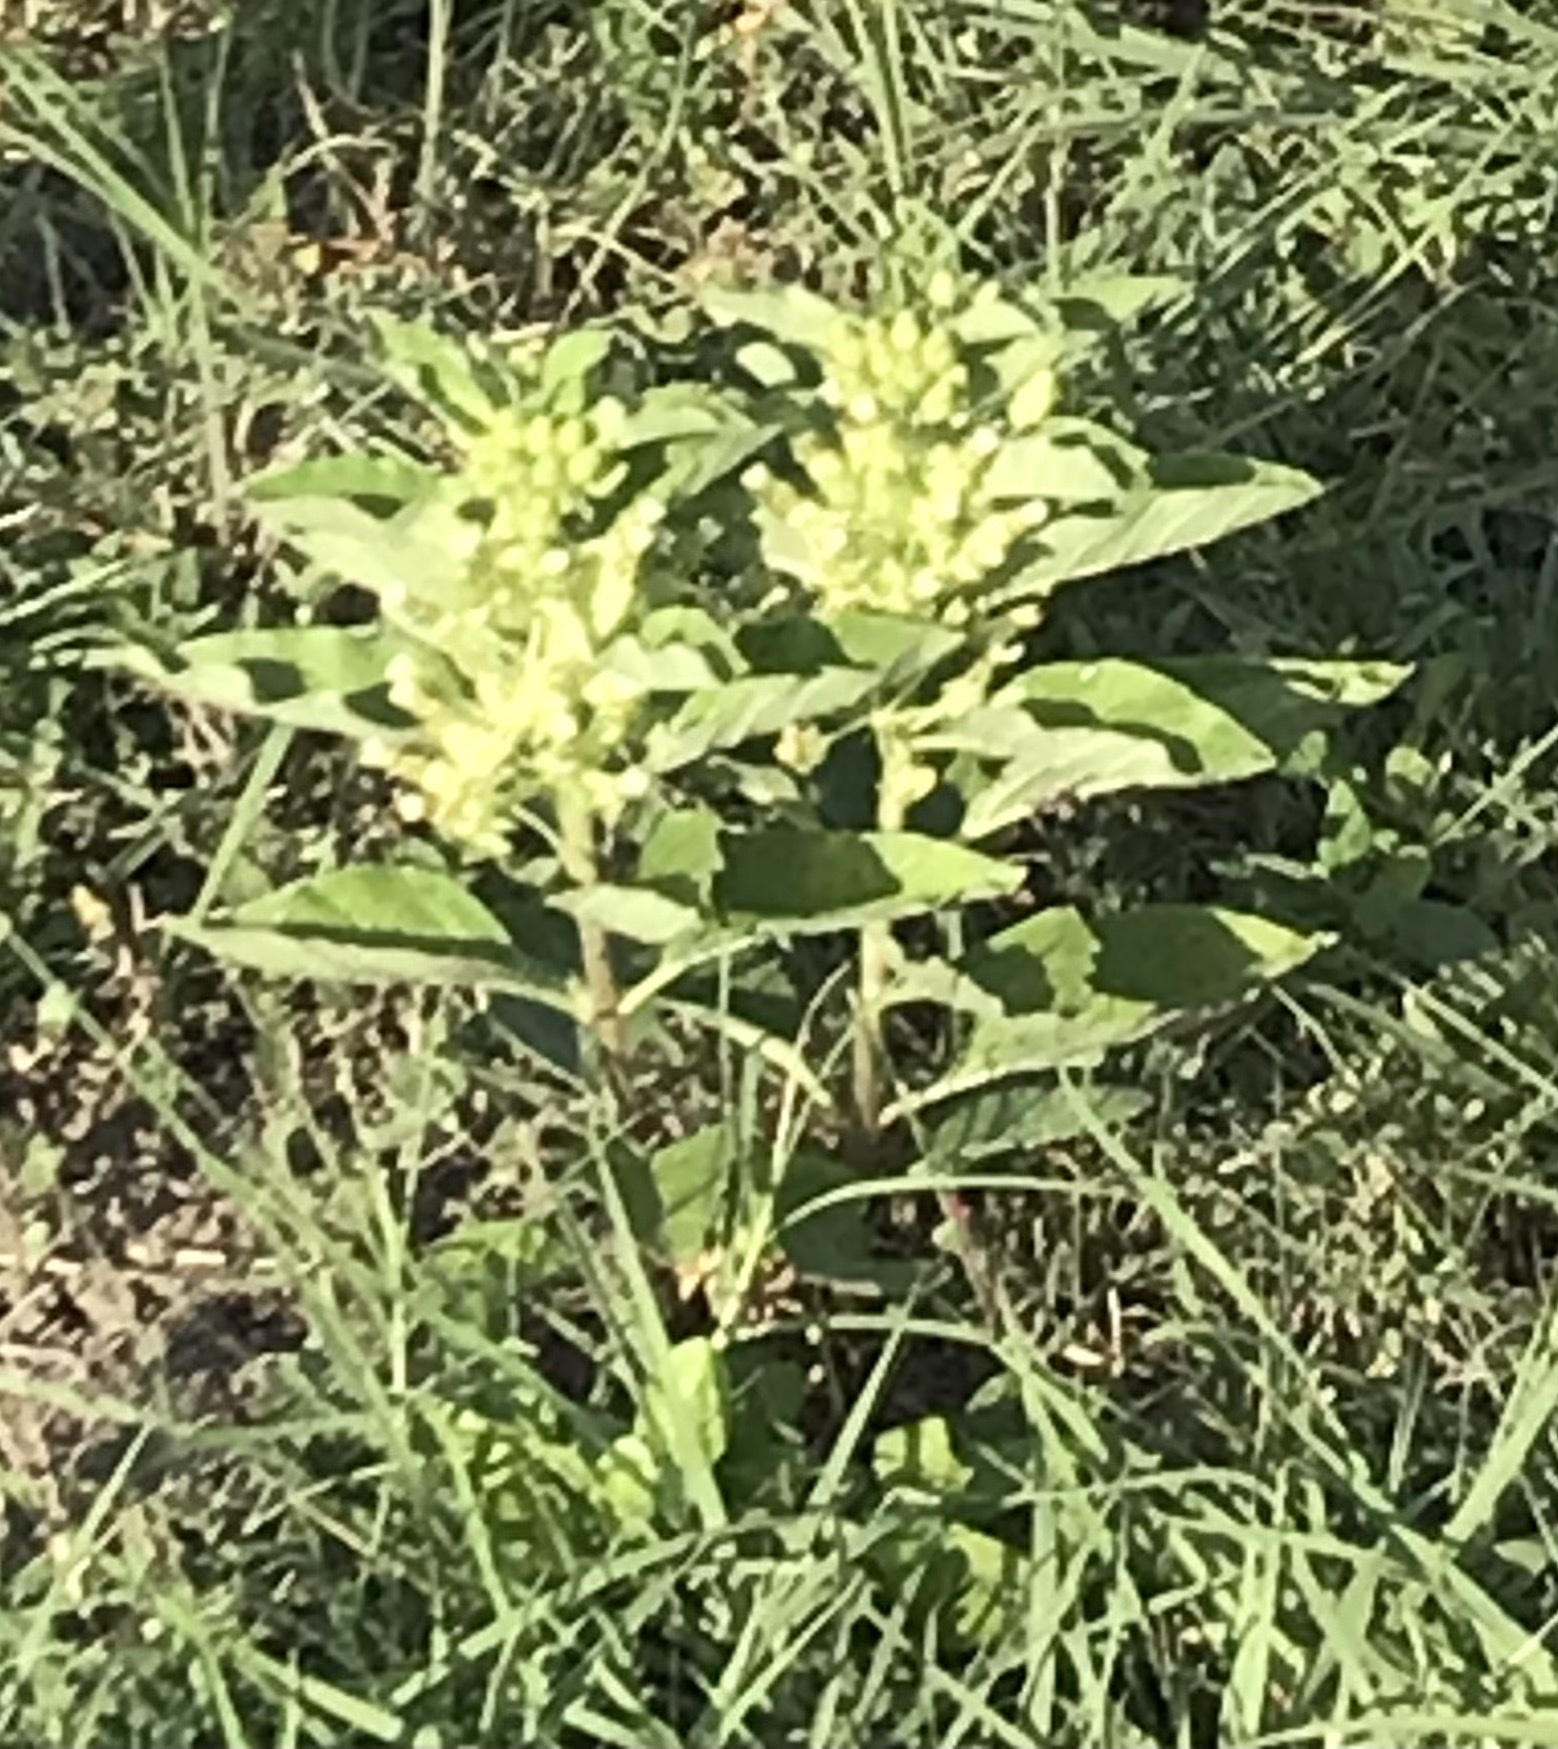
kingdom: Plantae
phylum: Tracheophyta
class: Magnoliopsida
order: Gentianales
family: Apocynaceae
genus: Asclepias
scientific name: Asclepias oenotheroides
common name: Zizotes milkweed
